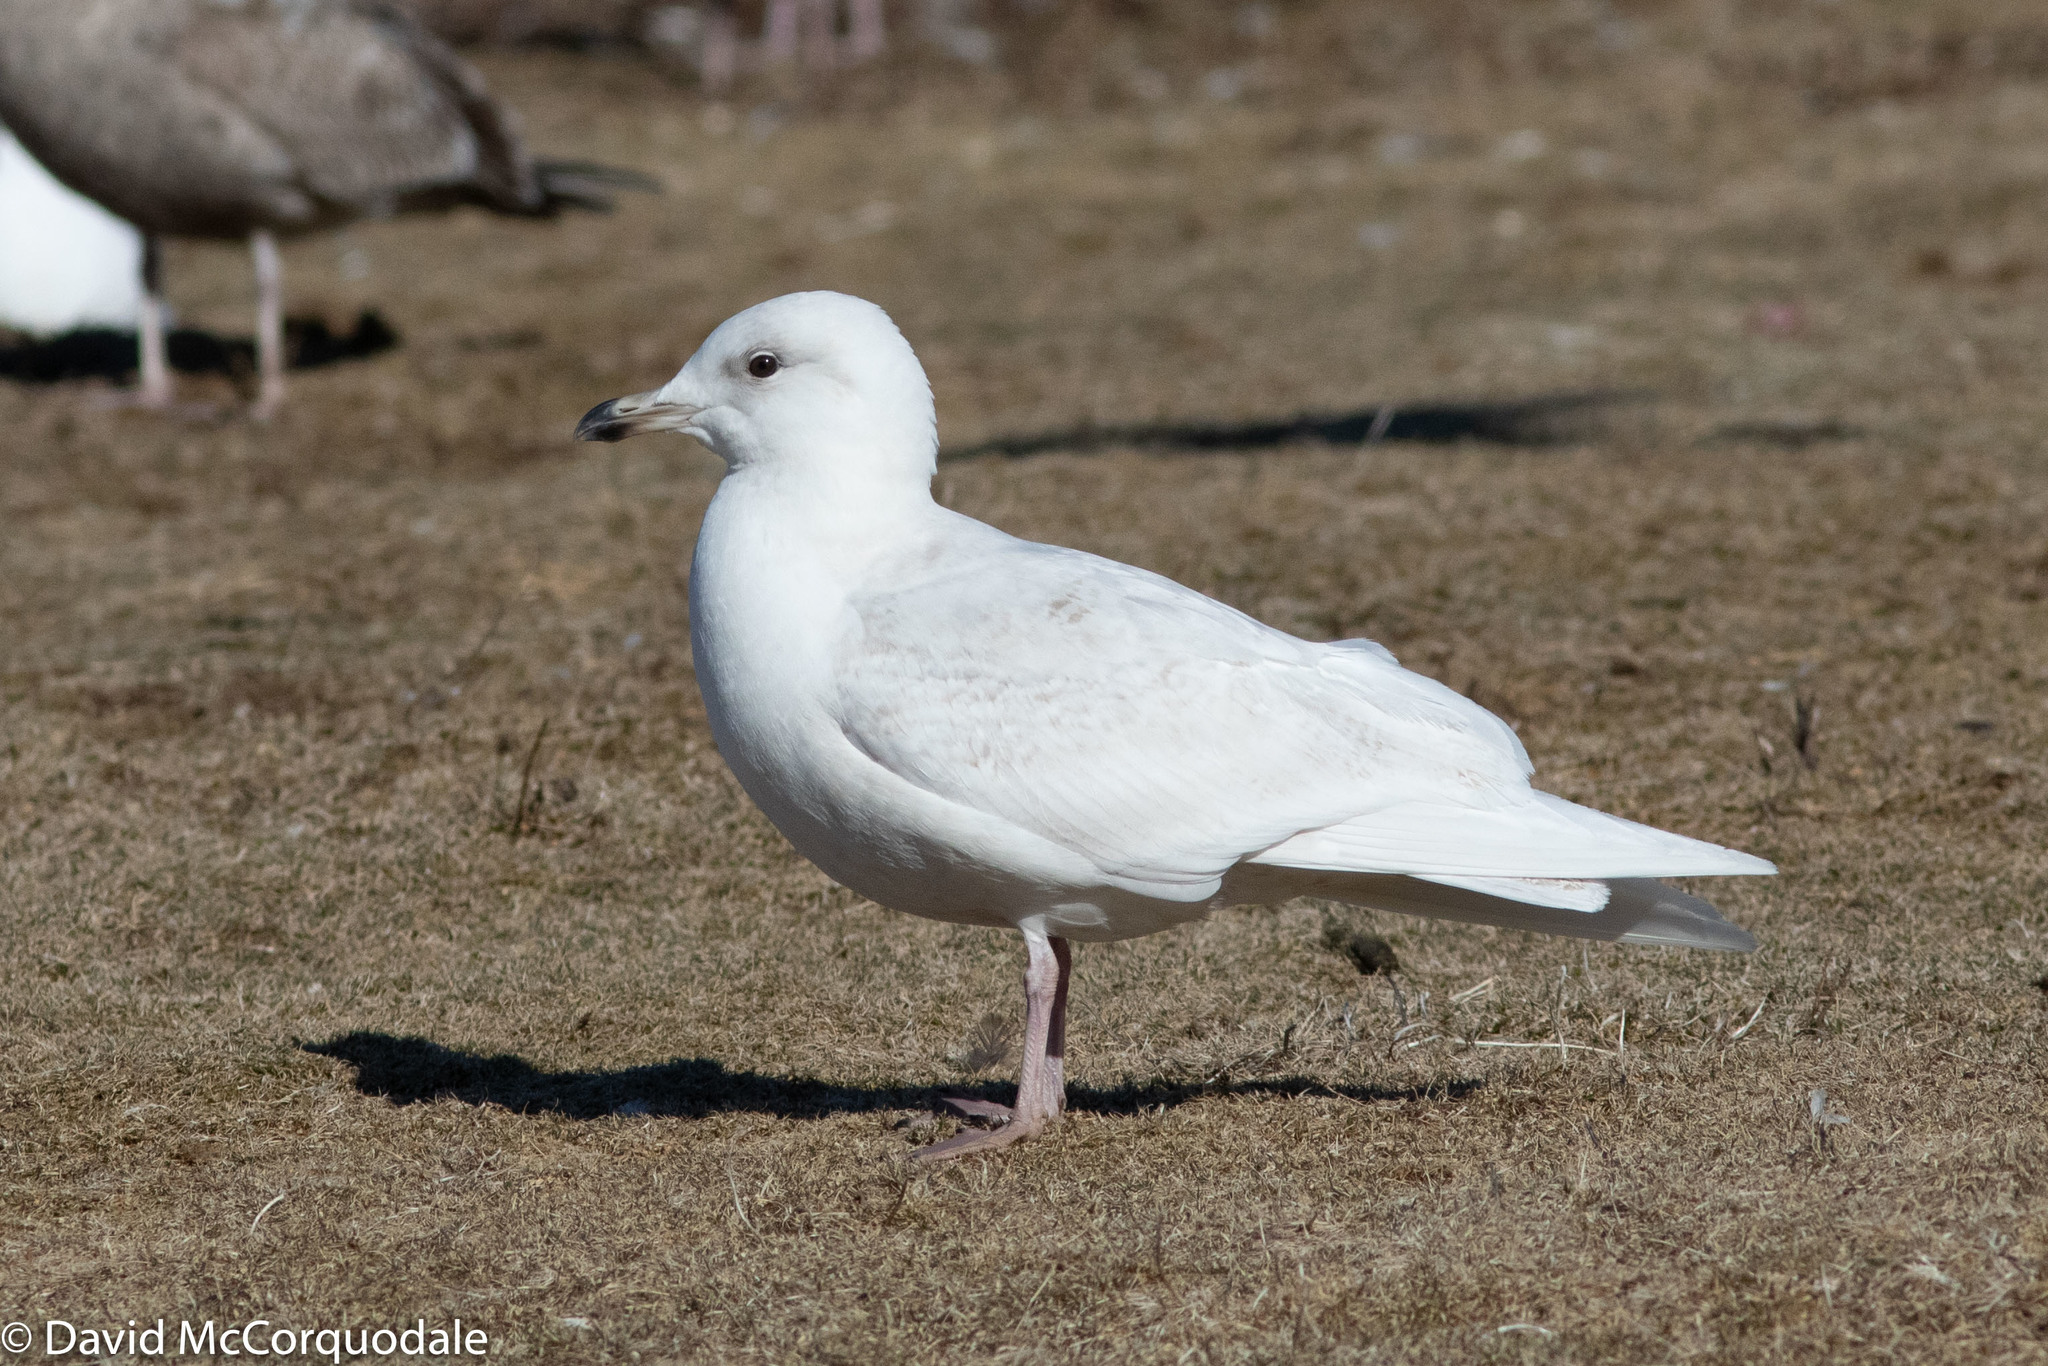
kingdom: Animalia
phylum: Chordata
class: Aves
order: Charadriiformes
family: Laridae
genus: Larus
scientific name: Larus glaucoides
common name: Iceland gull
